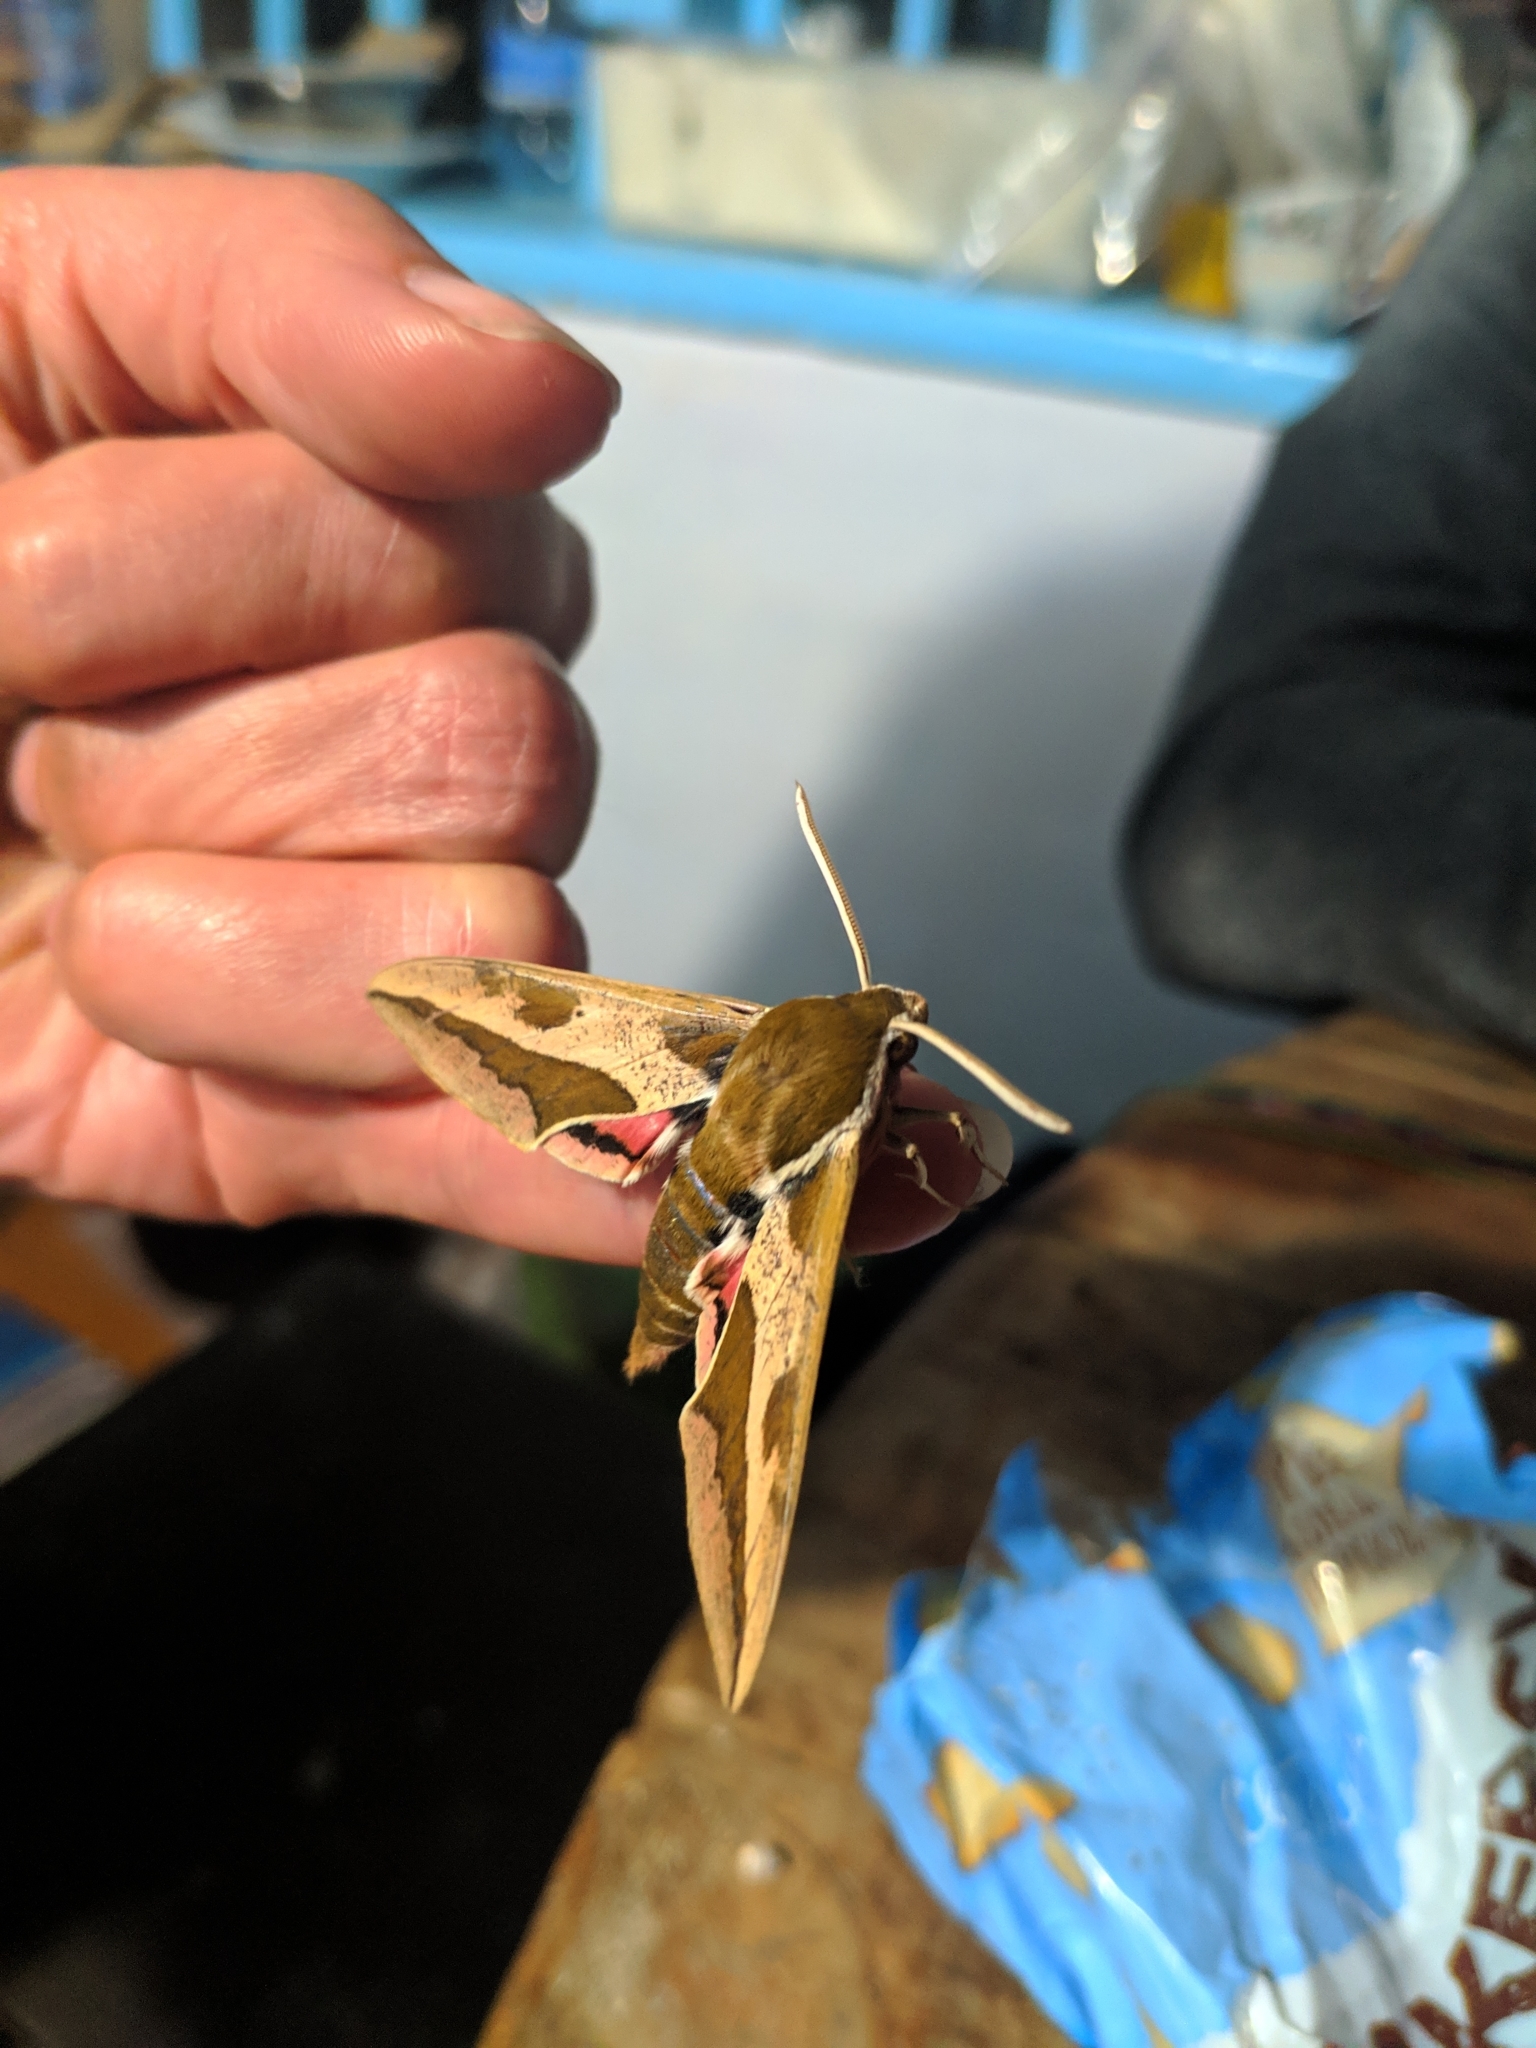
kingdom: Animalia
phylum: Arthropoda
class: Insecta
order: Lepidoptera
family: Sphingidae
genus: Hyles
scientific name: Hyles euphorbiae
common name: Spurge hawk-moth
